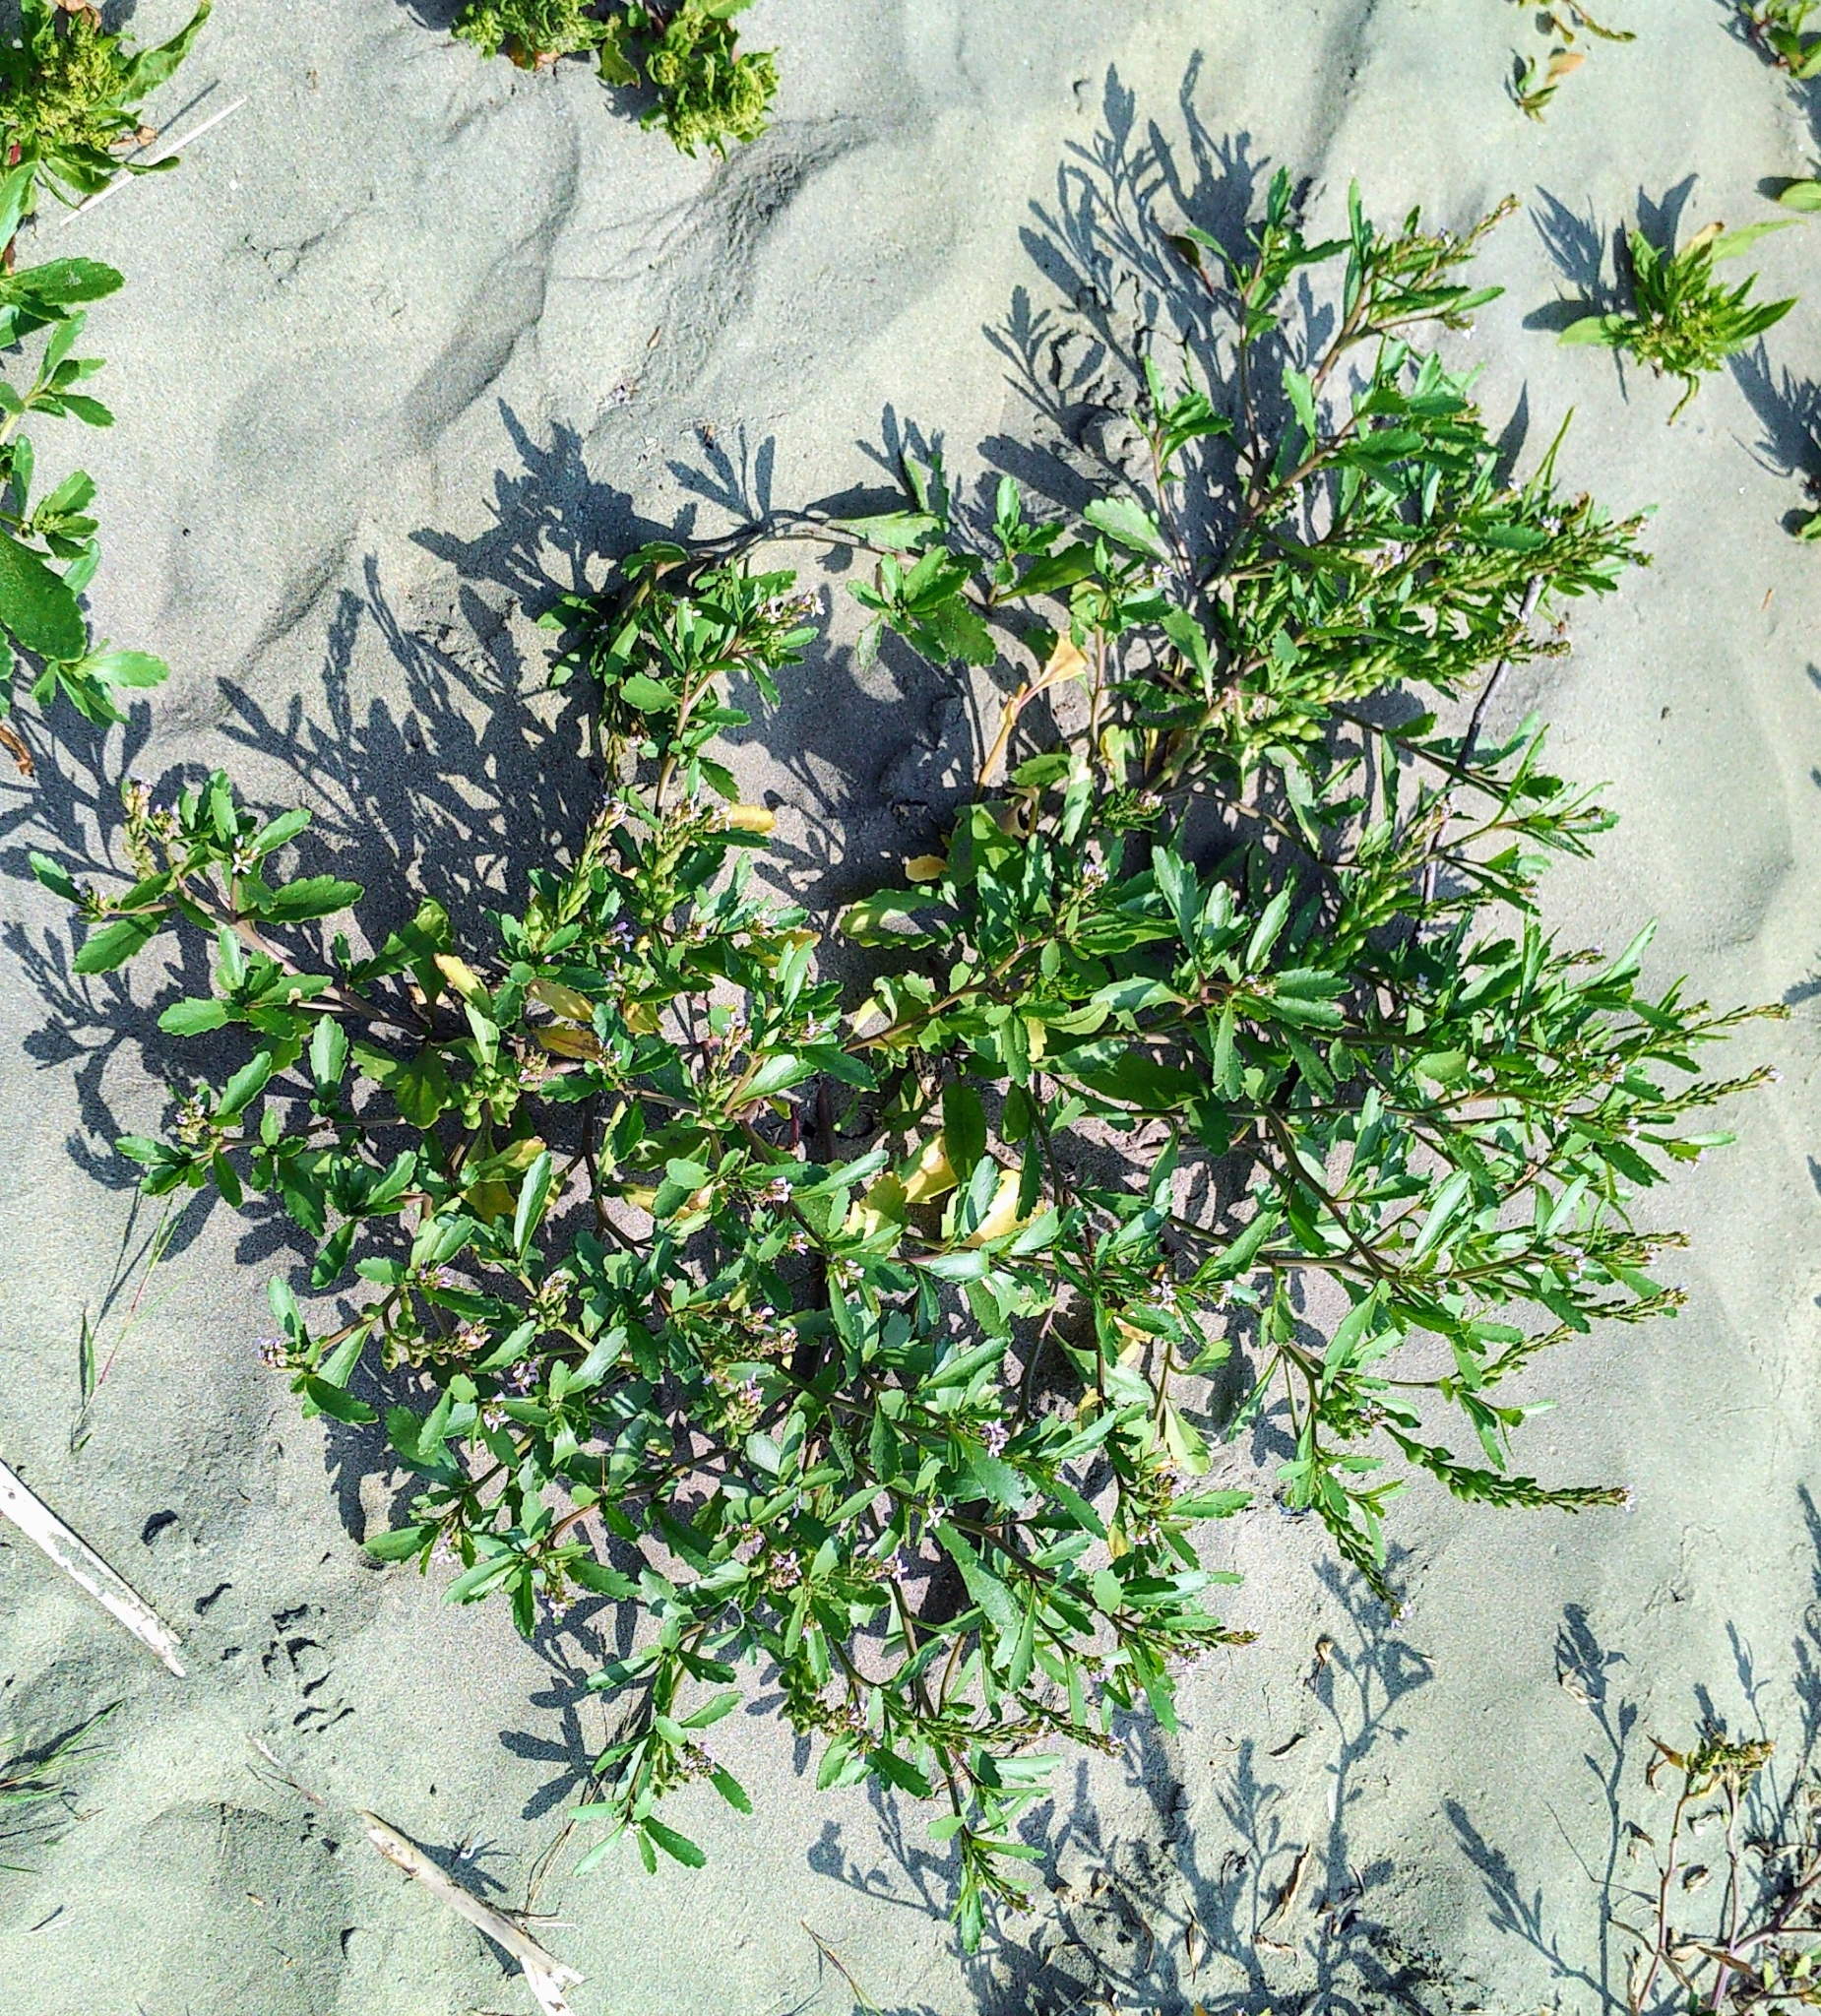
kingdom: Plantae
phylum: Tracheophyta
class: Magnoliopsida
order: Brassicales
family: Brassicaceae
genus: Cakile
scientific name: Cakile edentula
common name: American sea rocket
